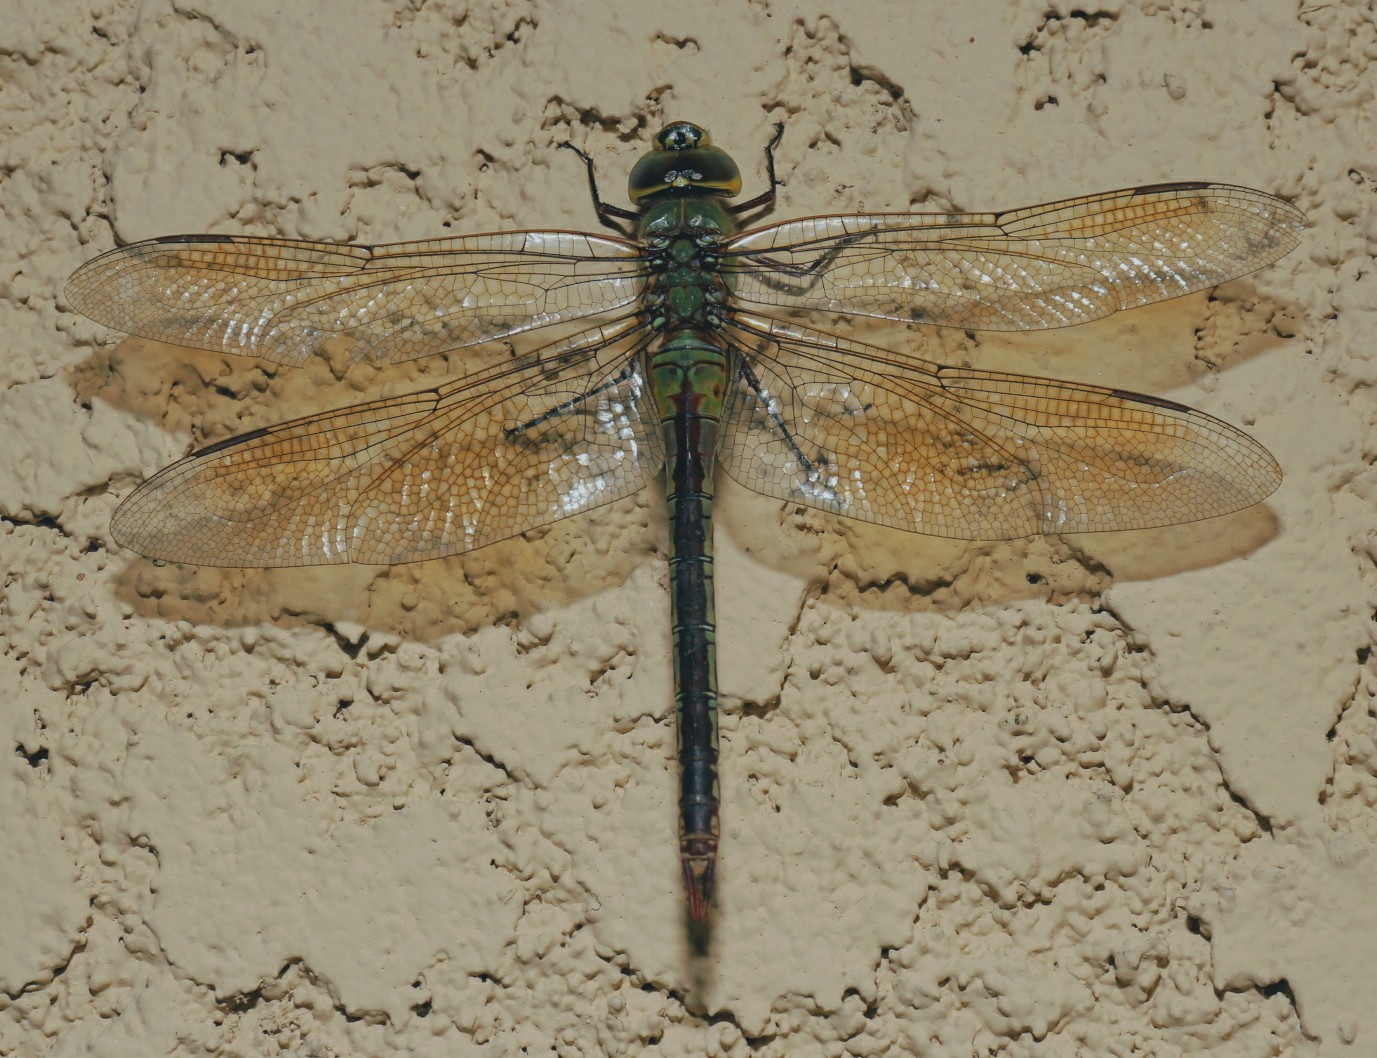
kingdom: Animalia
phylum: Arthropoda
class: Insecta
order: Odonata
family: Aeshnidae
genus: Anax
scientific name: Anax junius
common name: Common green darner
